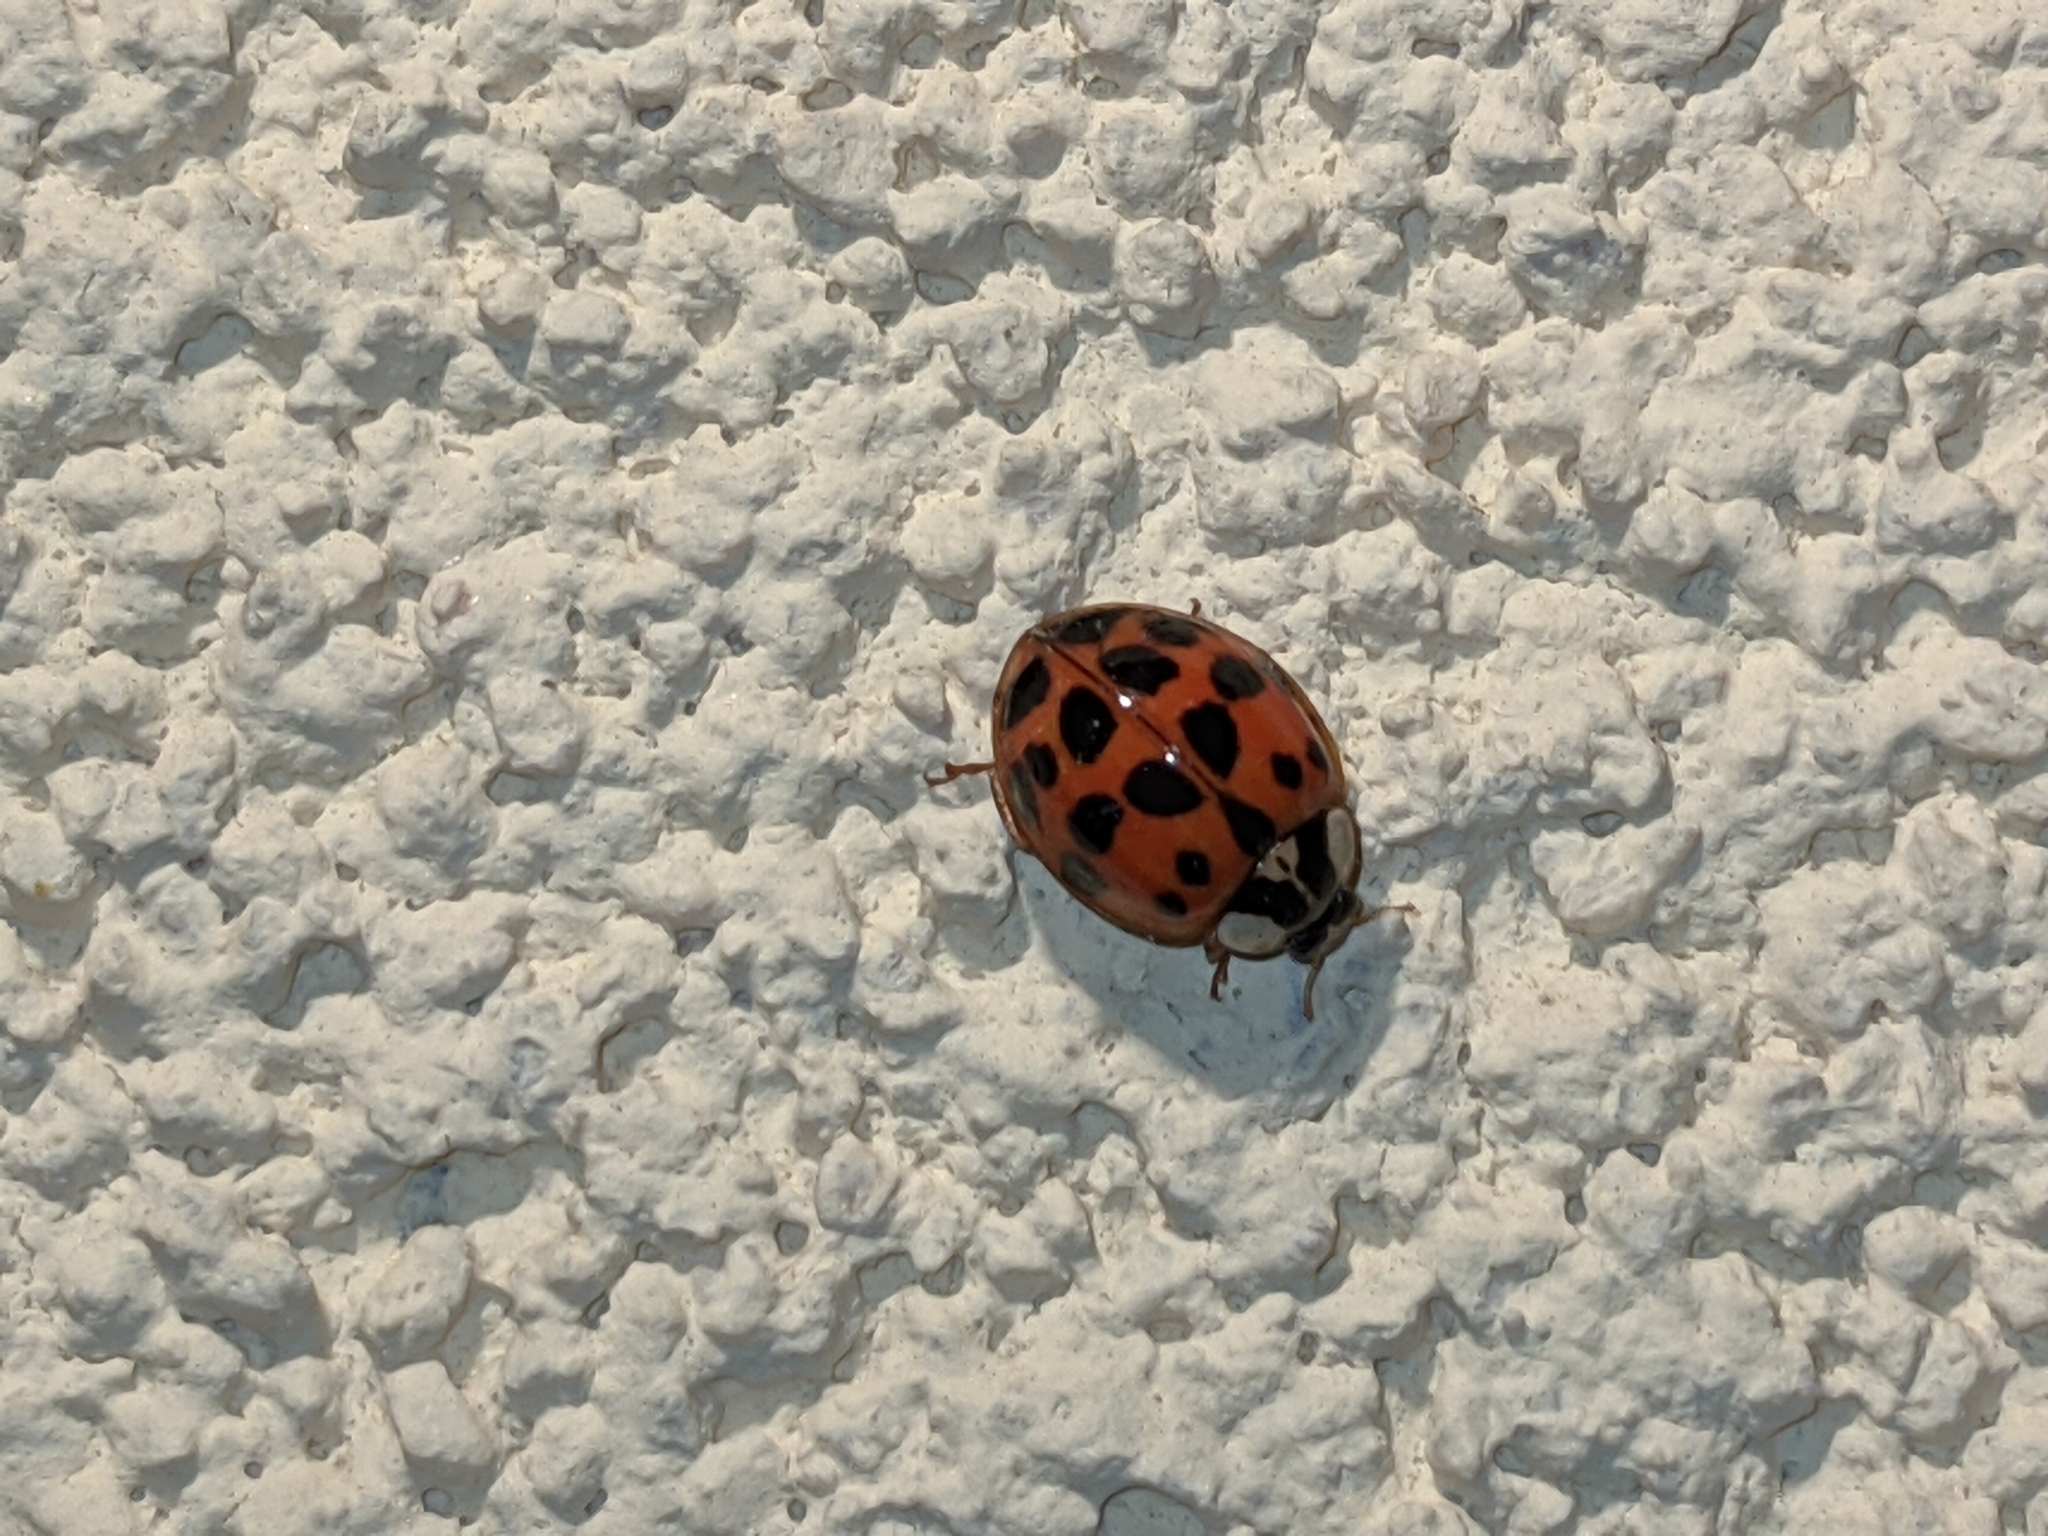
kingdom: Animalia
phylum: Arthropoda
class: Insecta
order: Coleoptera
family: Coccinellidae
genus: Harmonia
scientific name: Harmonia axyridis
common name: Harlequin ladybird
